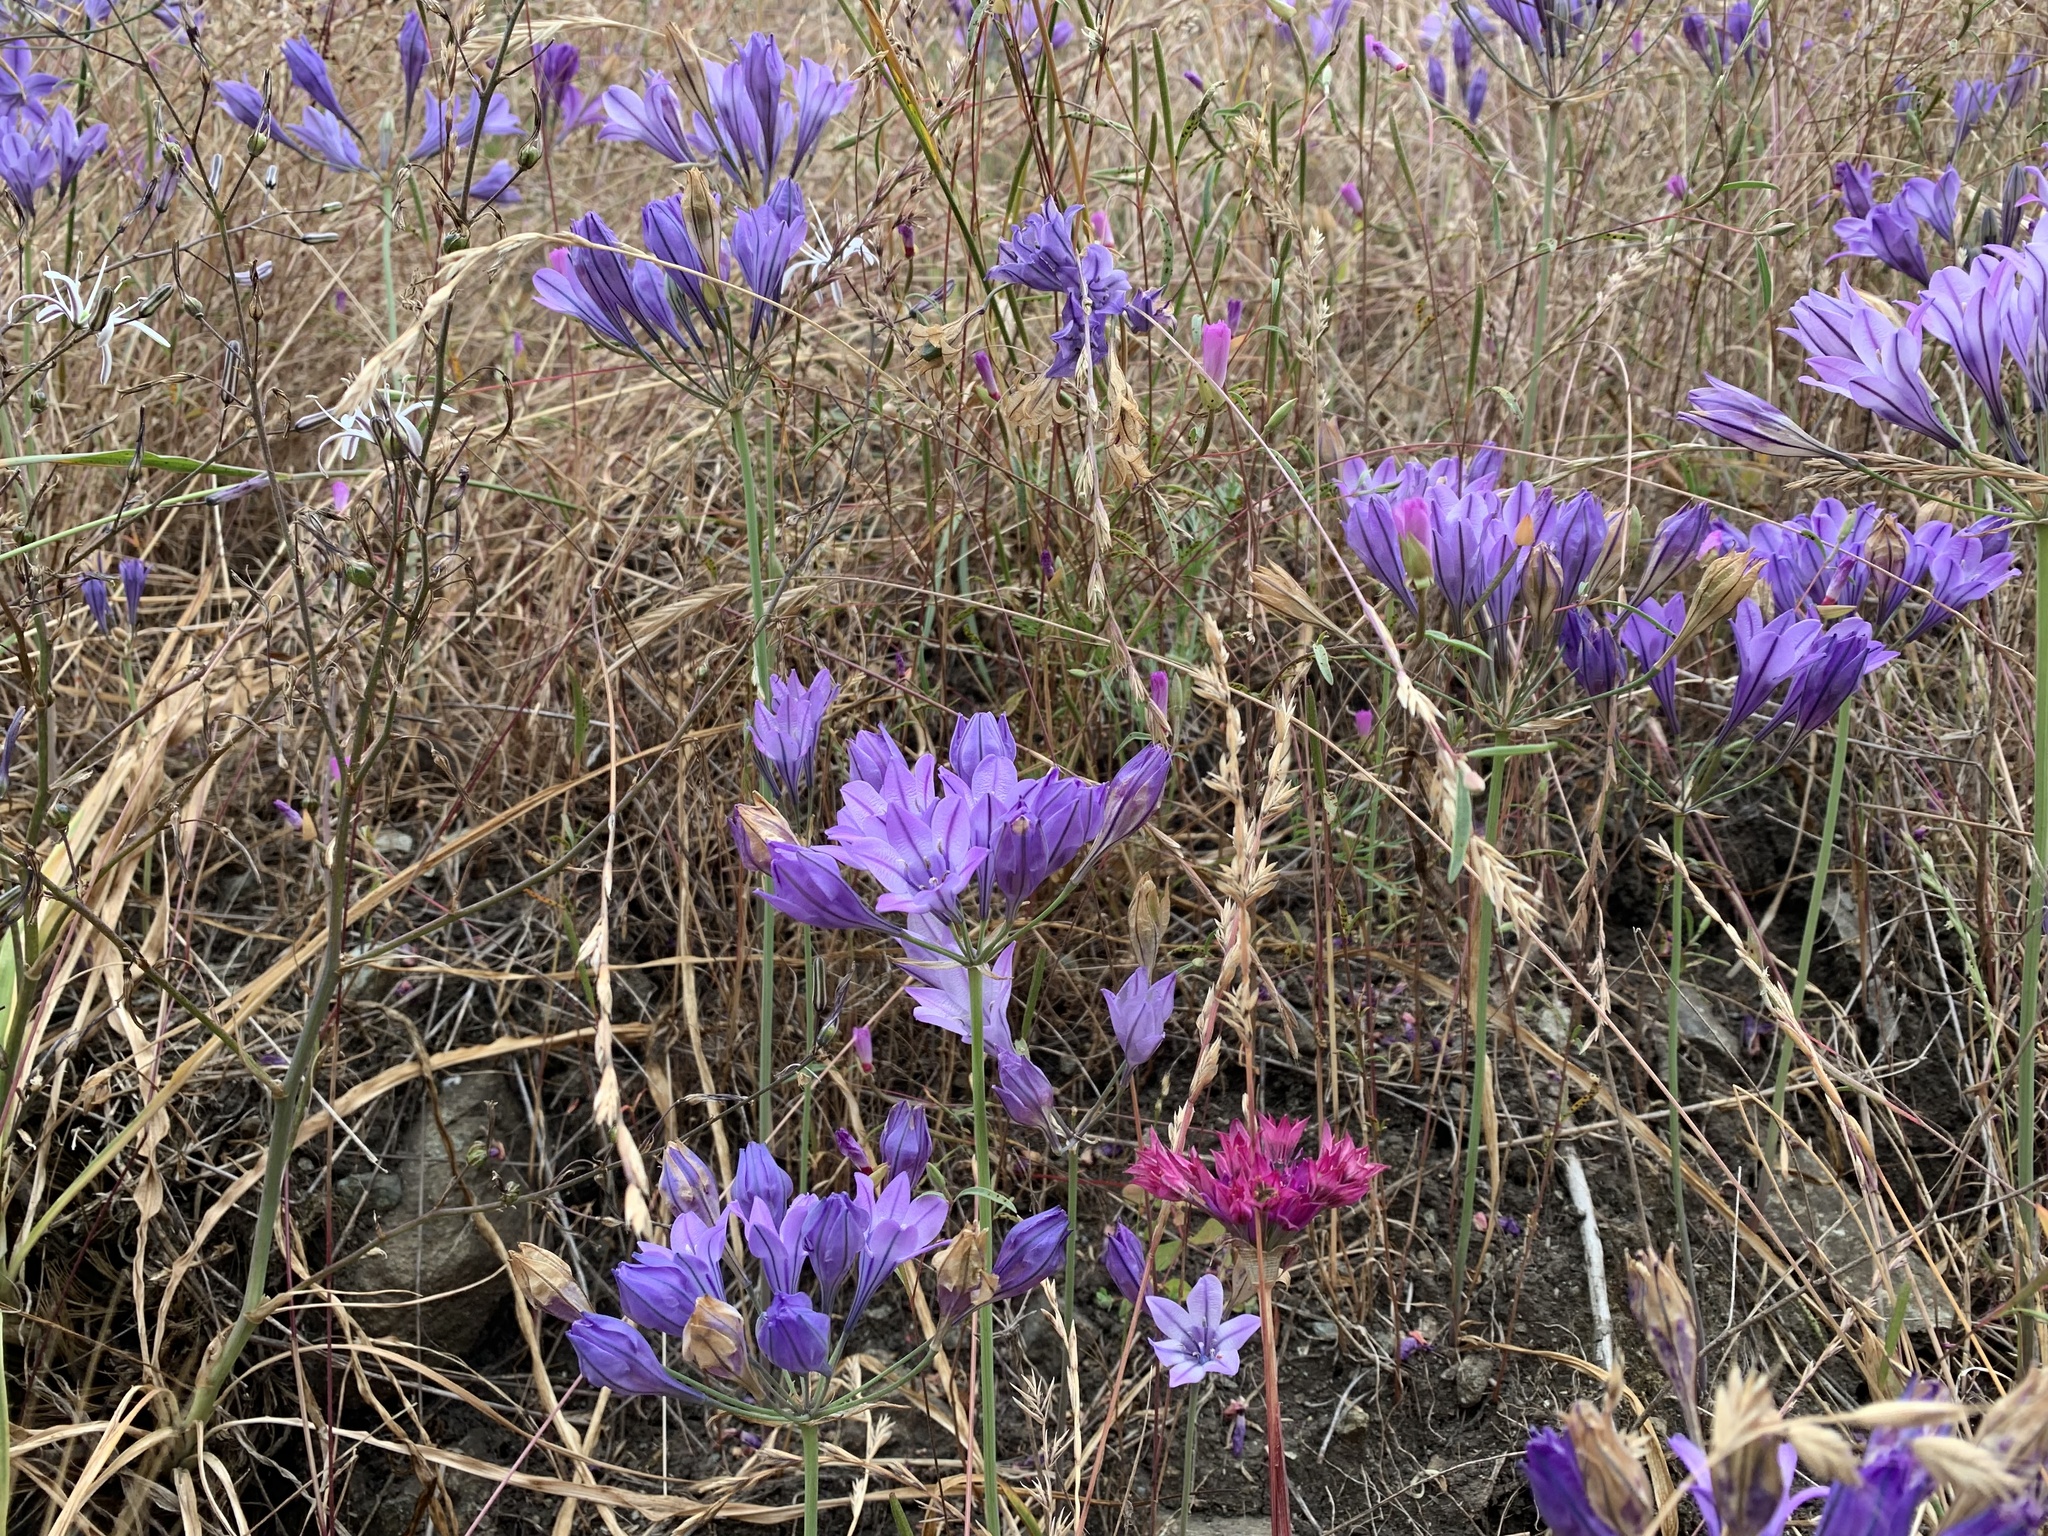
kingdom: Plantae
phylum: Tracheophyta
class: Liliopsida
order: Asparagales
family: Asparagaceae
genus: Triteleia
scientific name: Triteleia laxa
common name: Triplet-lily
